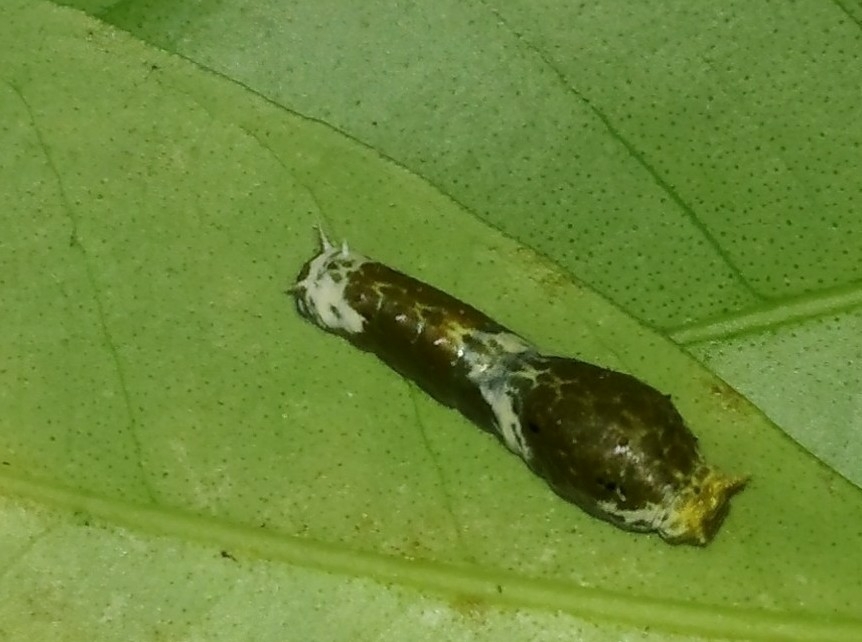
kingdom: Animalia
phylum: Arthropoda
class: Insecta
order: Lepidoptera
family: Papilionidae
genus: Papilio
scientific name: Papilio polytes
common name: Common mormon
